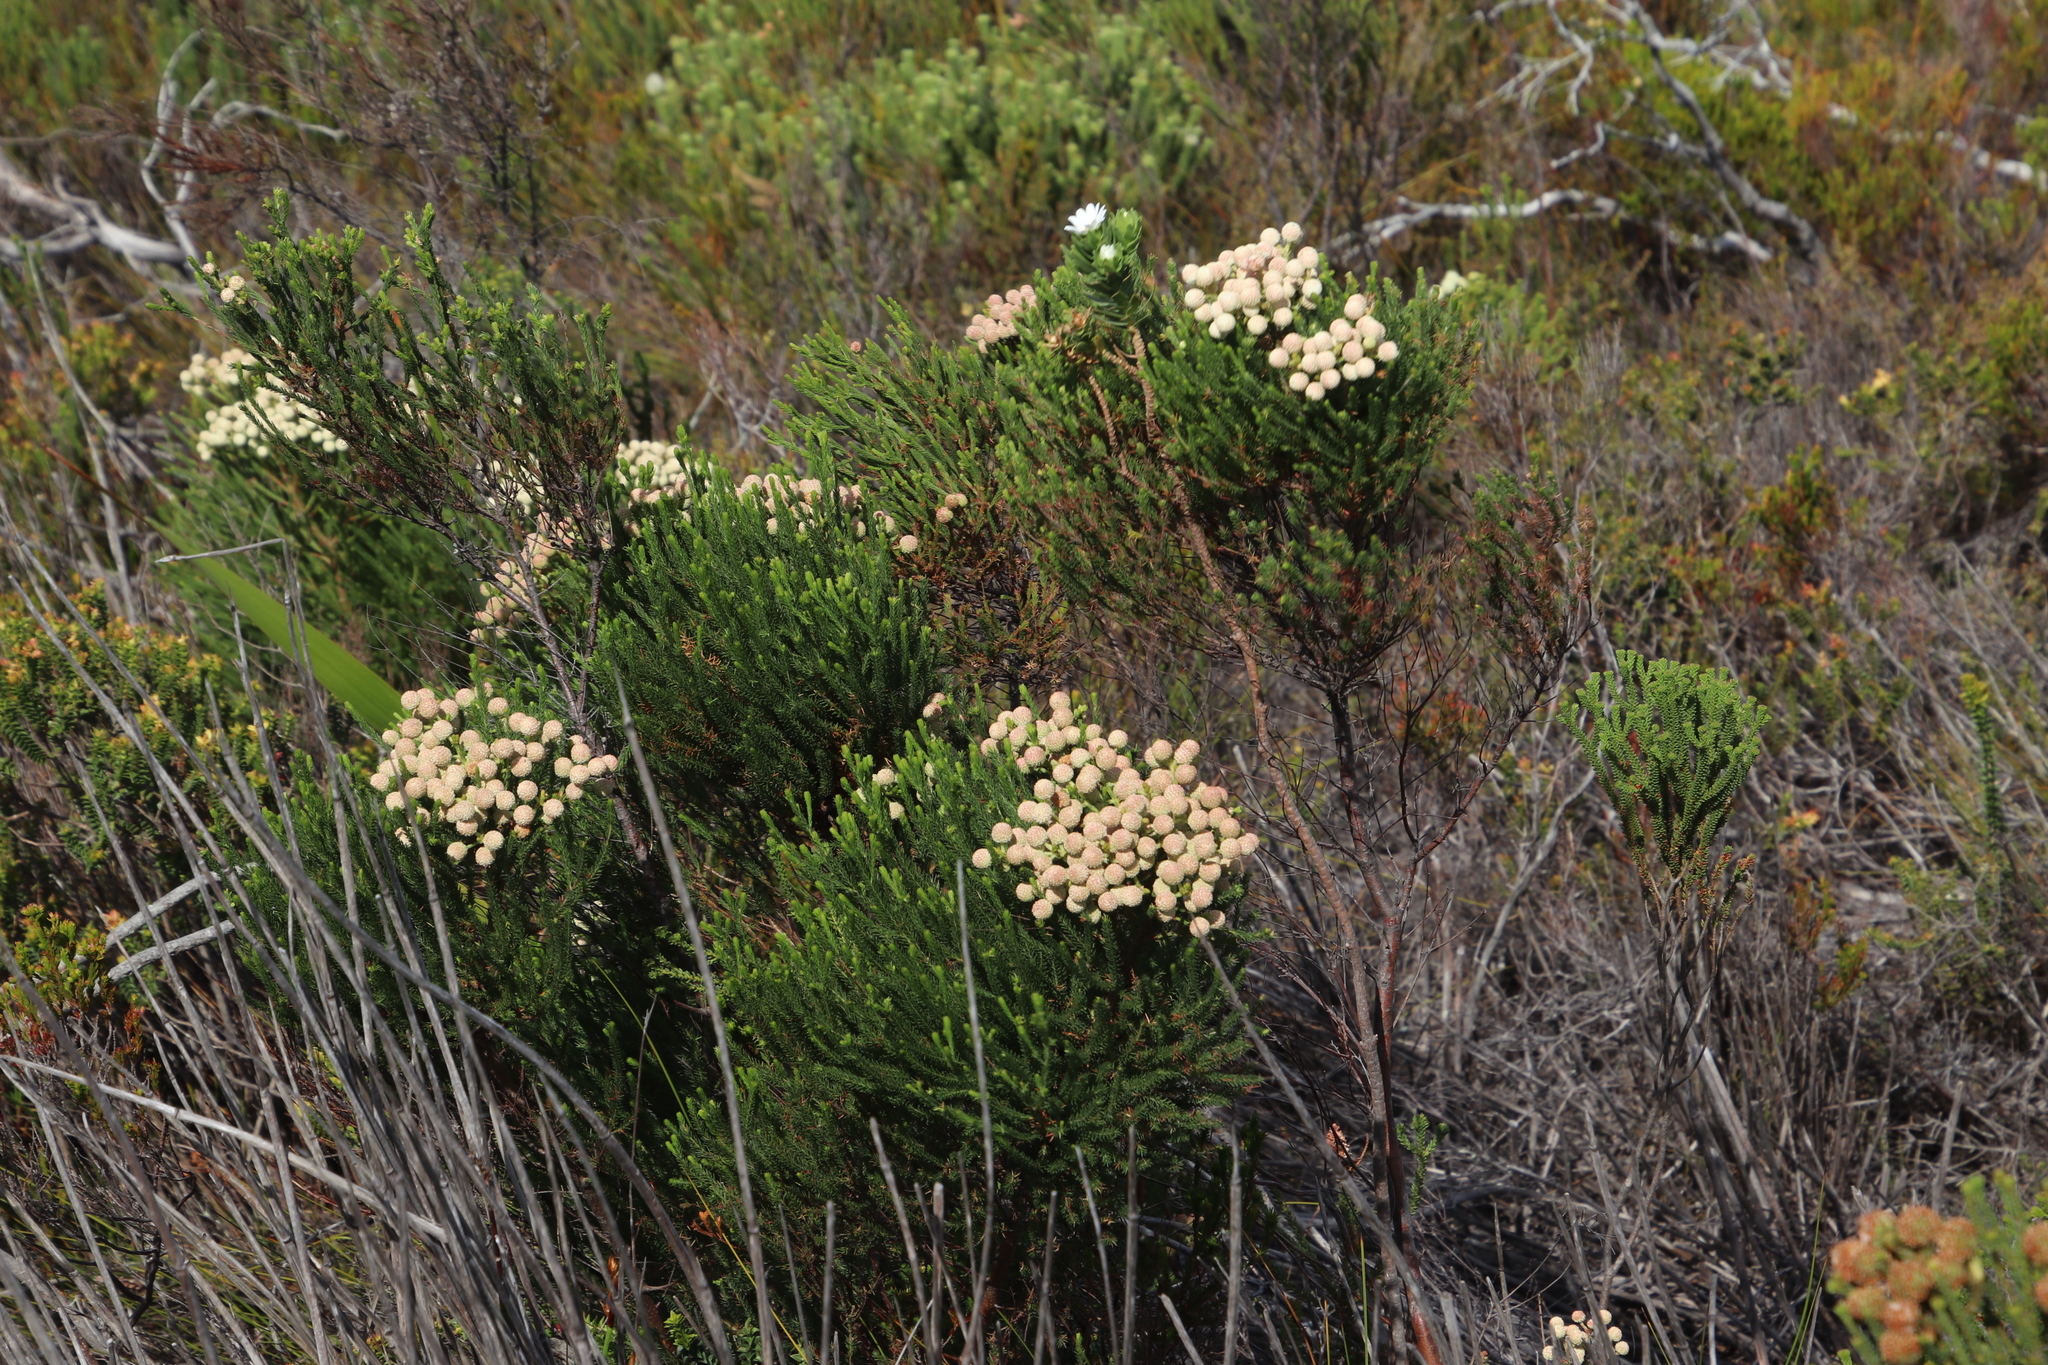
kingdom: Plantae
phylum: Tracheophyta
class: Magnoliopsida
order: Bruniales
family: Bruniaceae
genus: Berzelia
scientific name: Berzelia abrotanoides
